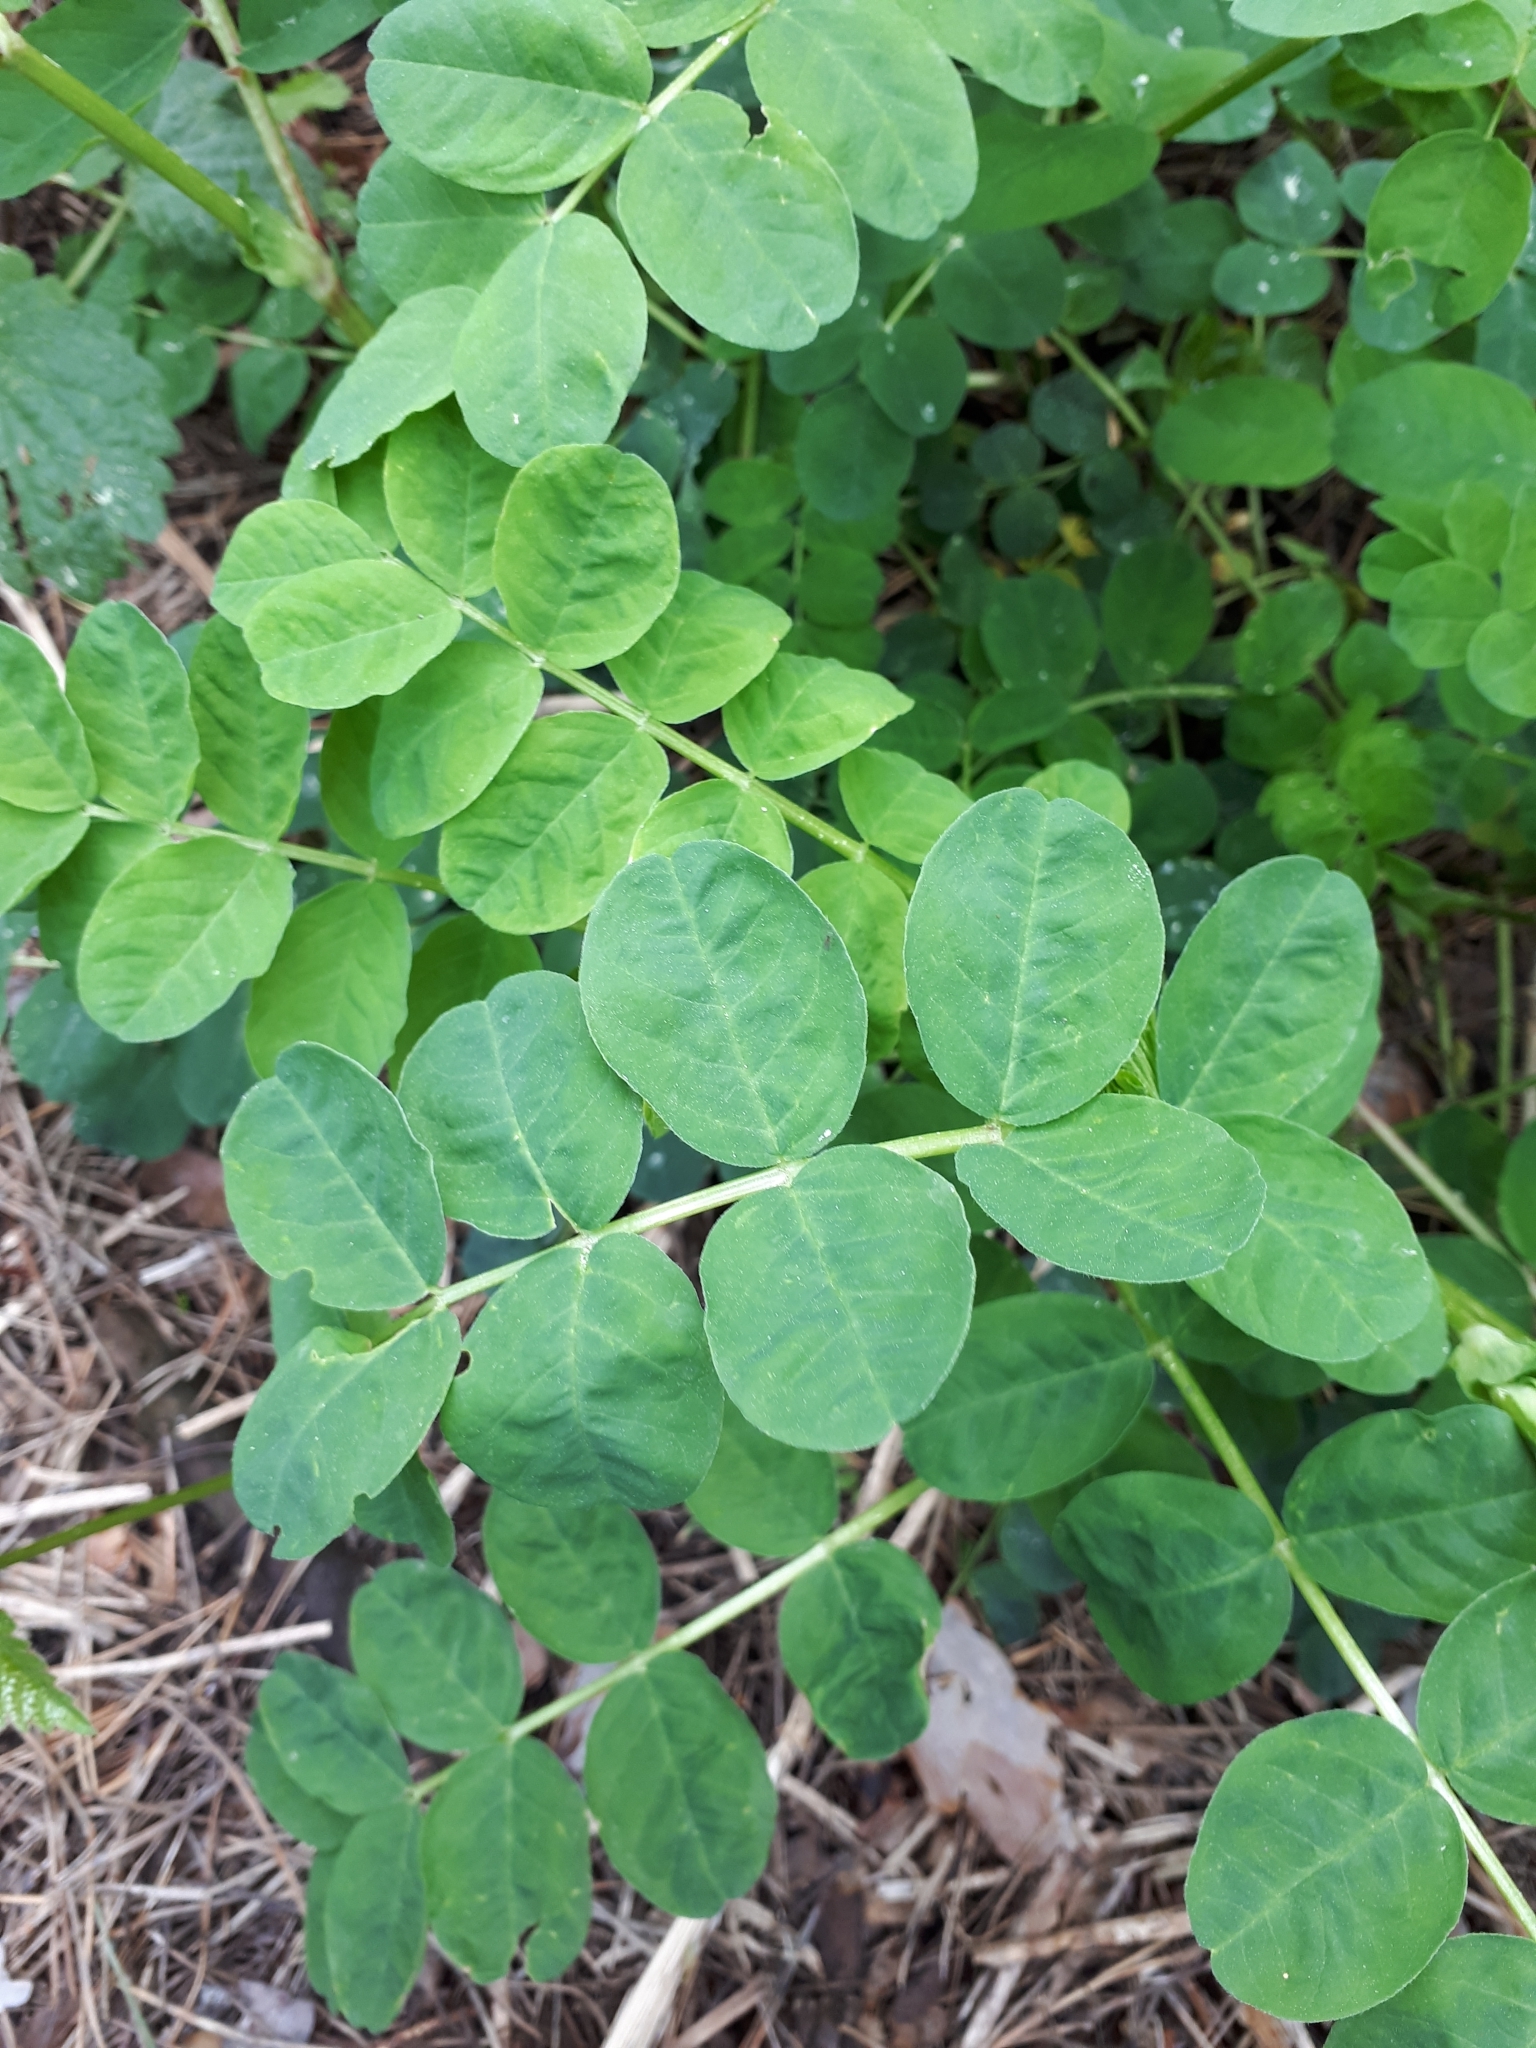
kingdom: Plantae
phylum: Tracheophyta
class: Magnoliopsida
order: Fabales
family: Fabaceae
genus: Astragalus
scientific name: Astragalus glycyphyllos
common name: Wild liquorice
